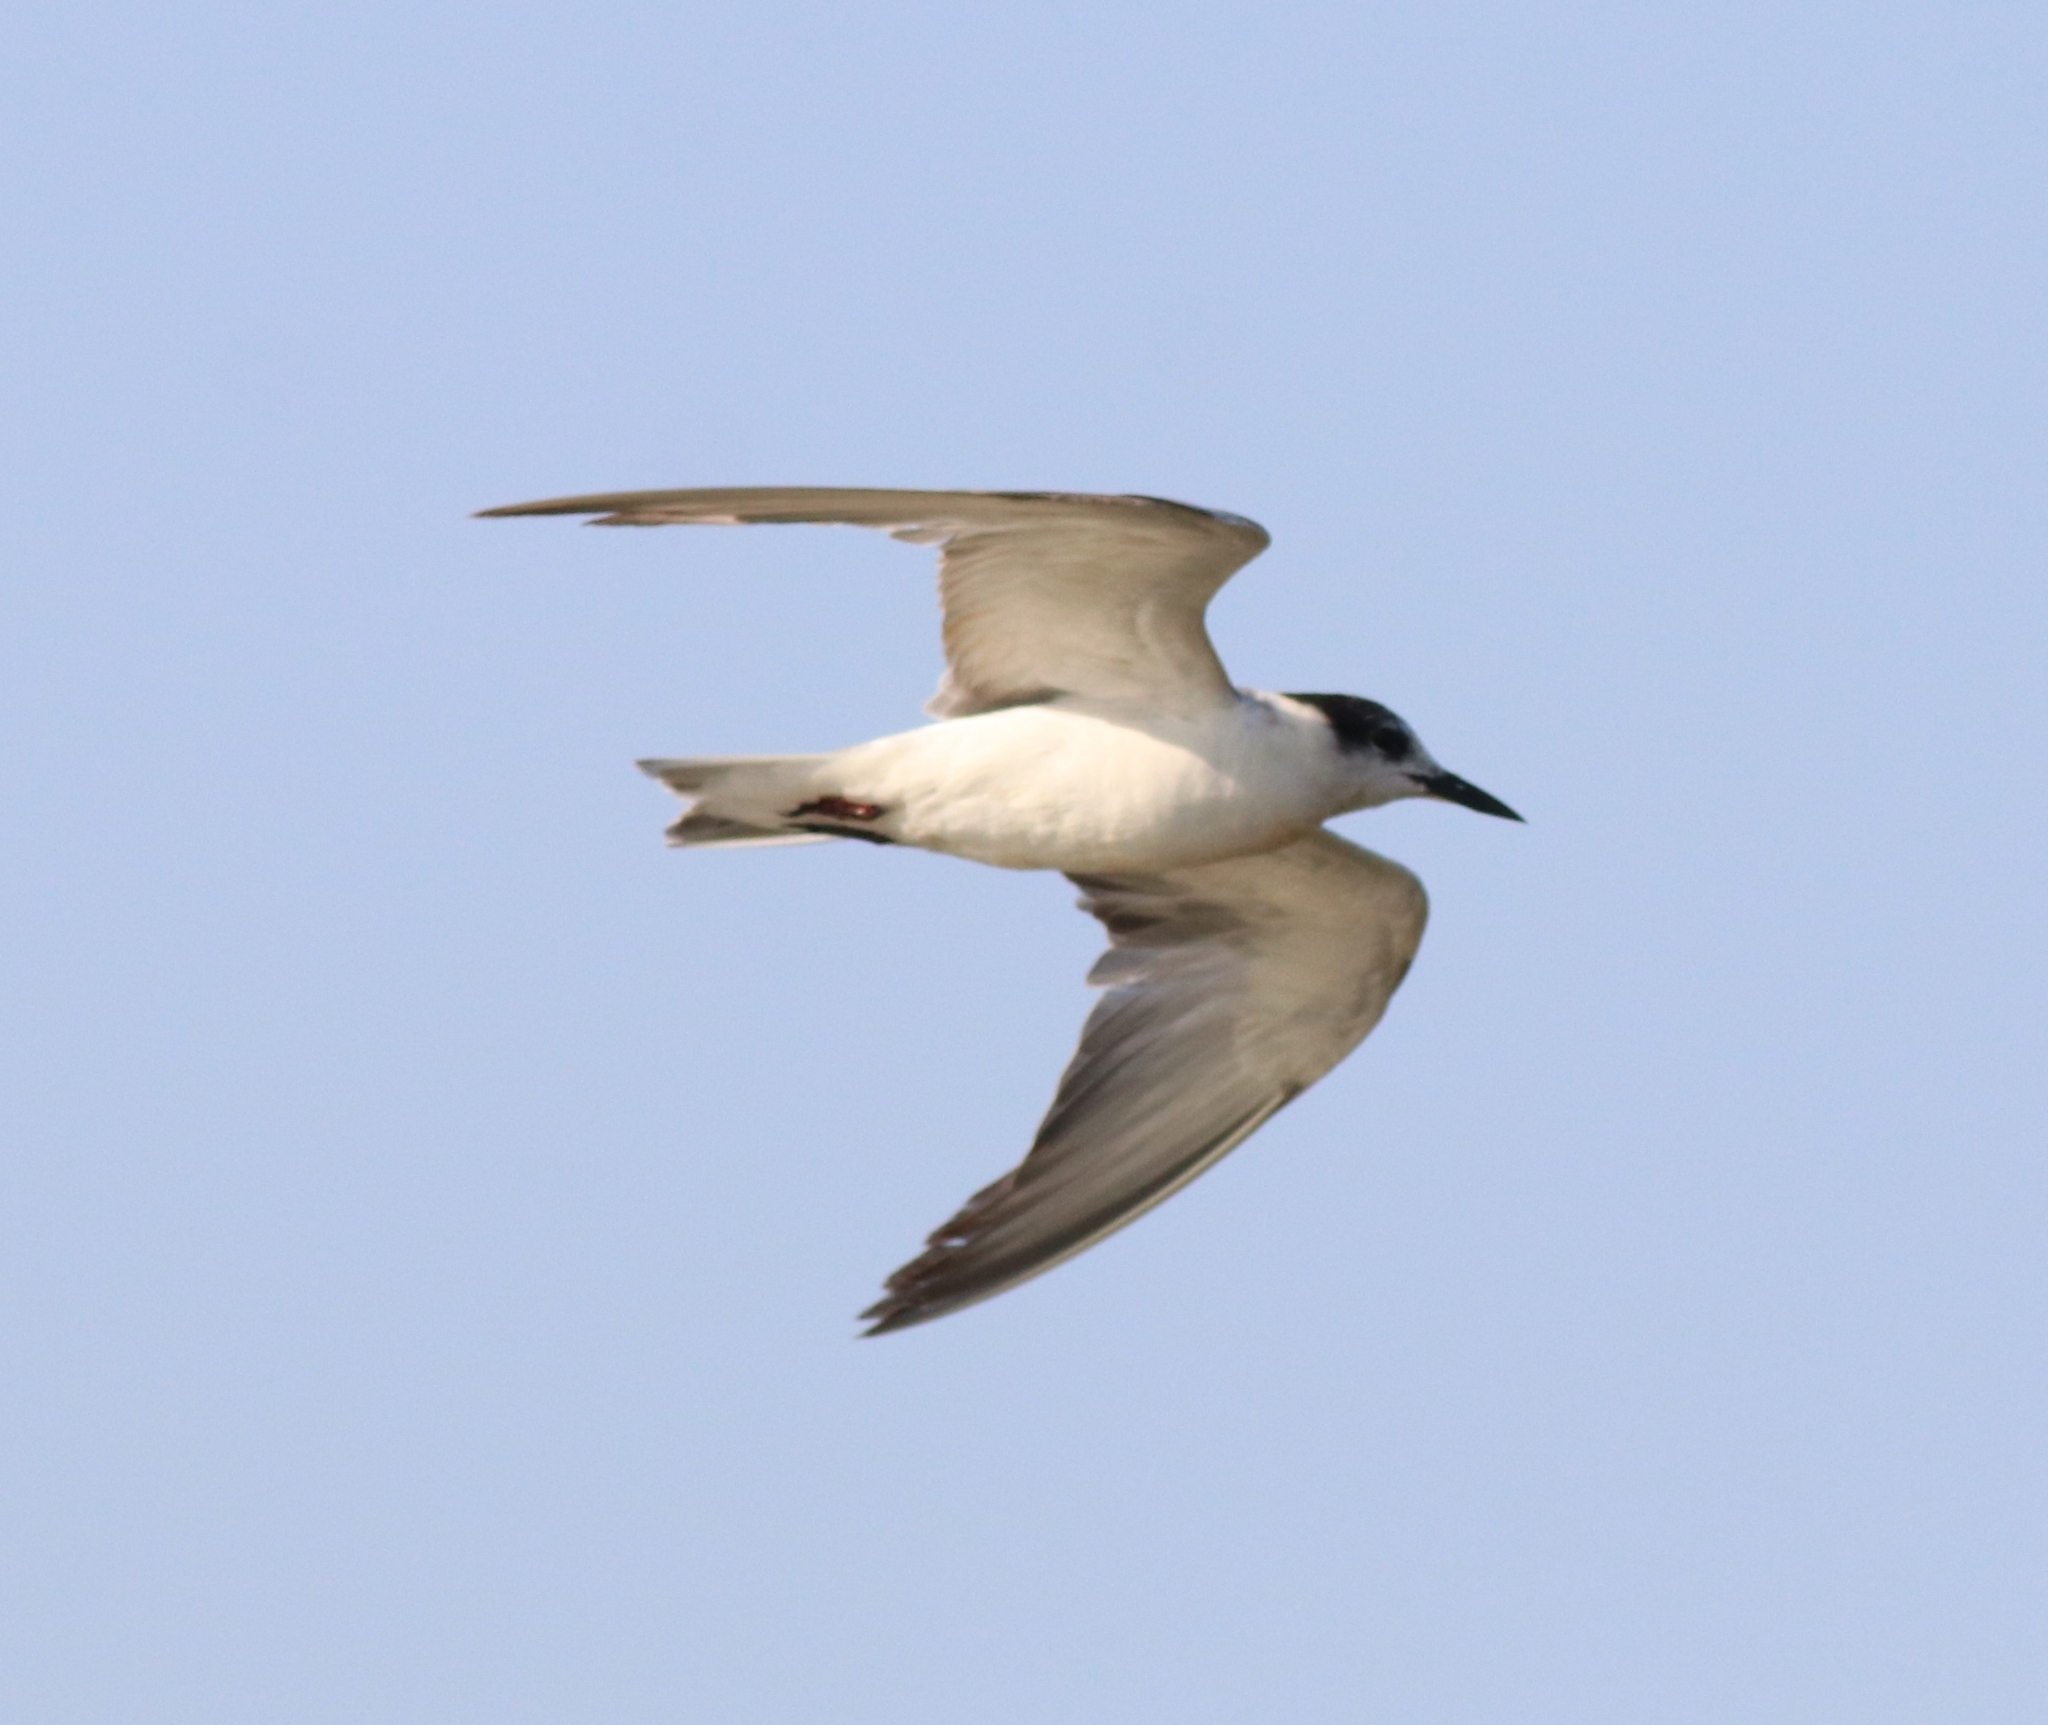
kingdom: Animalia
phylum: Chordata
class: Aves
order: Charadriiformes
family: Laridae
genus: Chlidonias
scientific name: Chlidonias hybrida
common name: Whiskered tern
